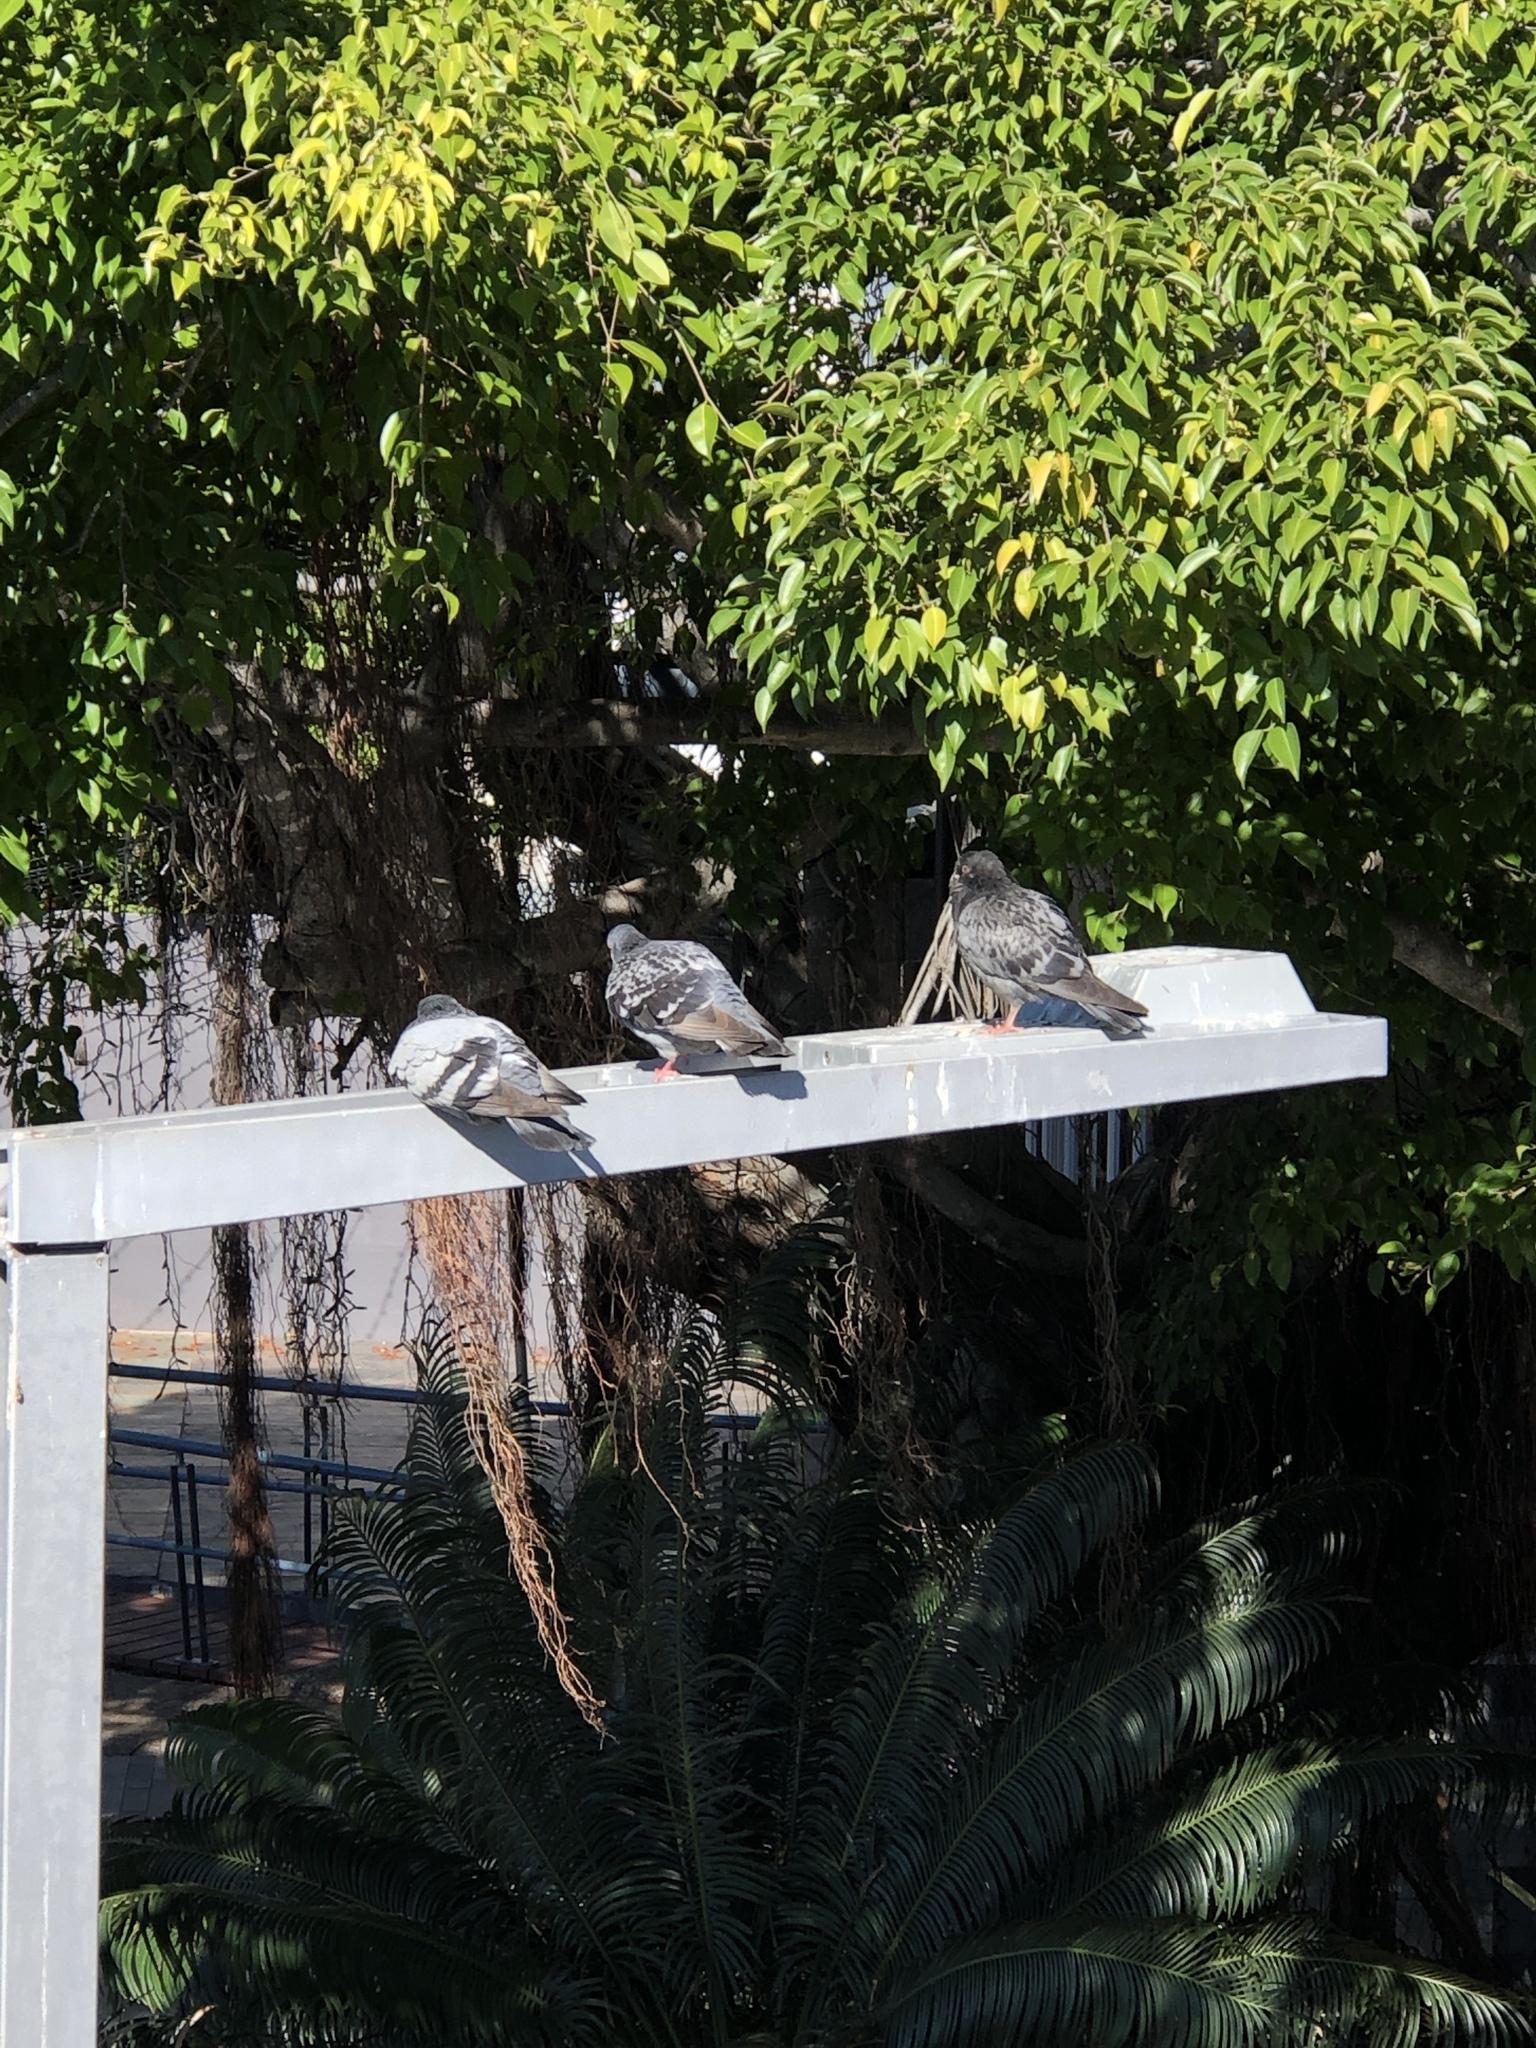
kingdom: Animalia
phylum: Chordata
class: Aves
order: Columbiformes
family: Columbidae
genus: Columba
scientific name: Columba livia
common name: Rock pigeon
